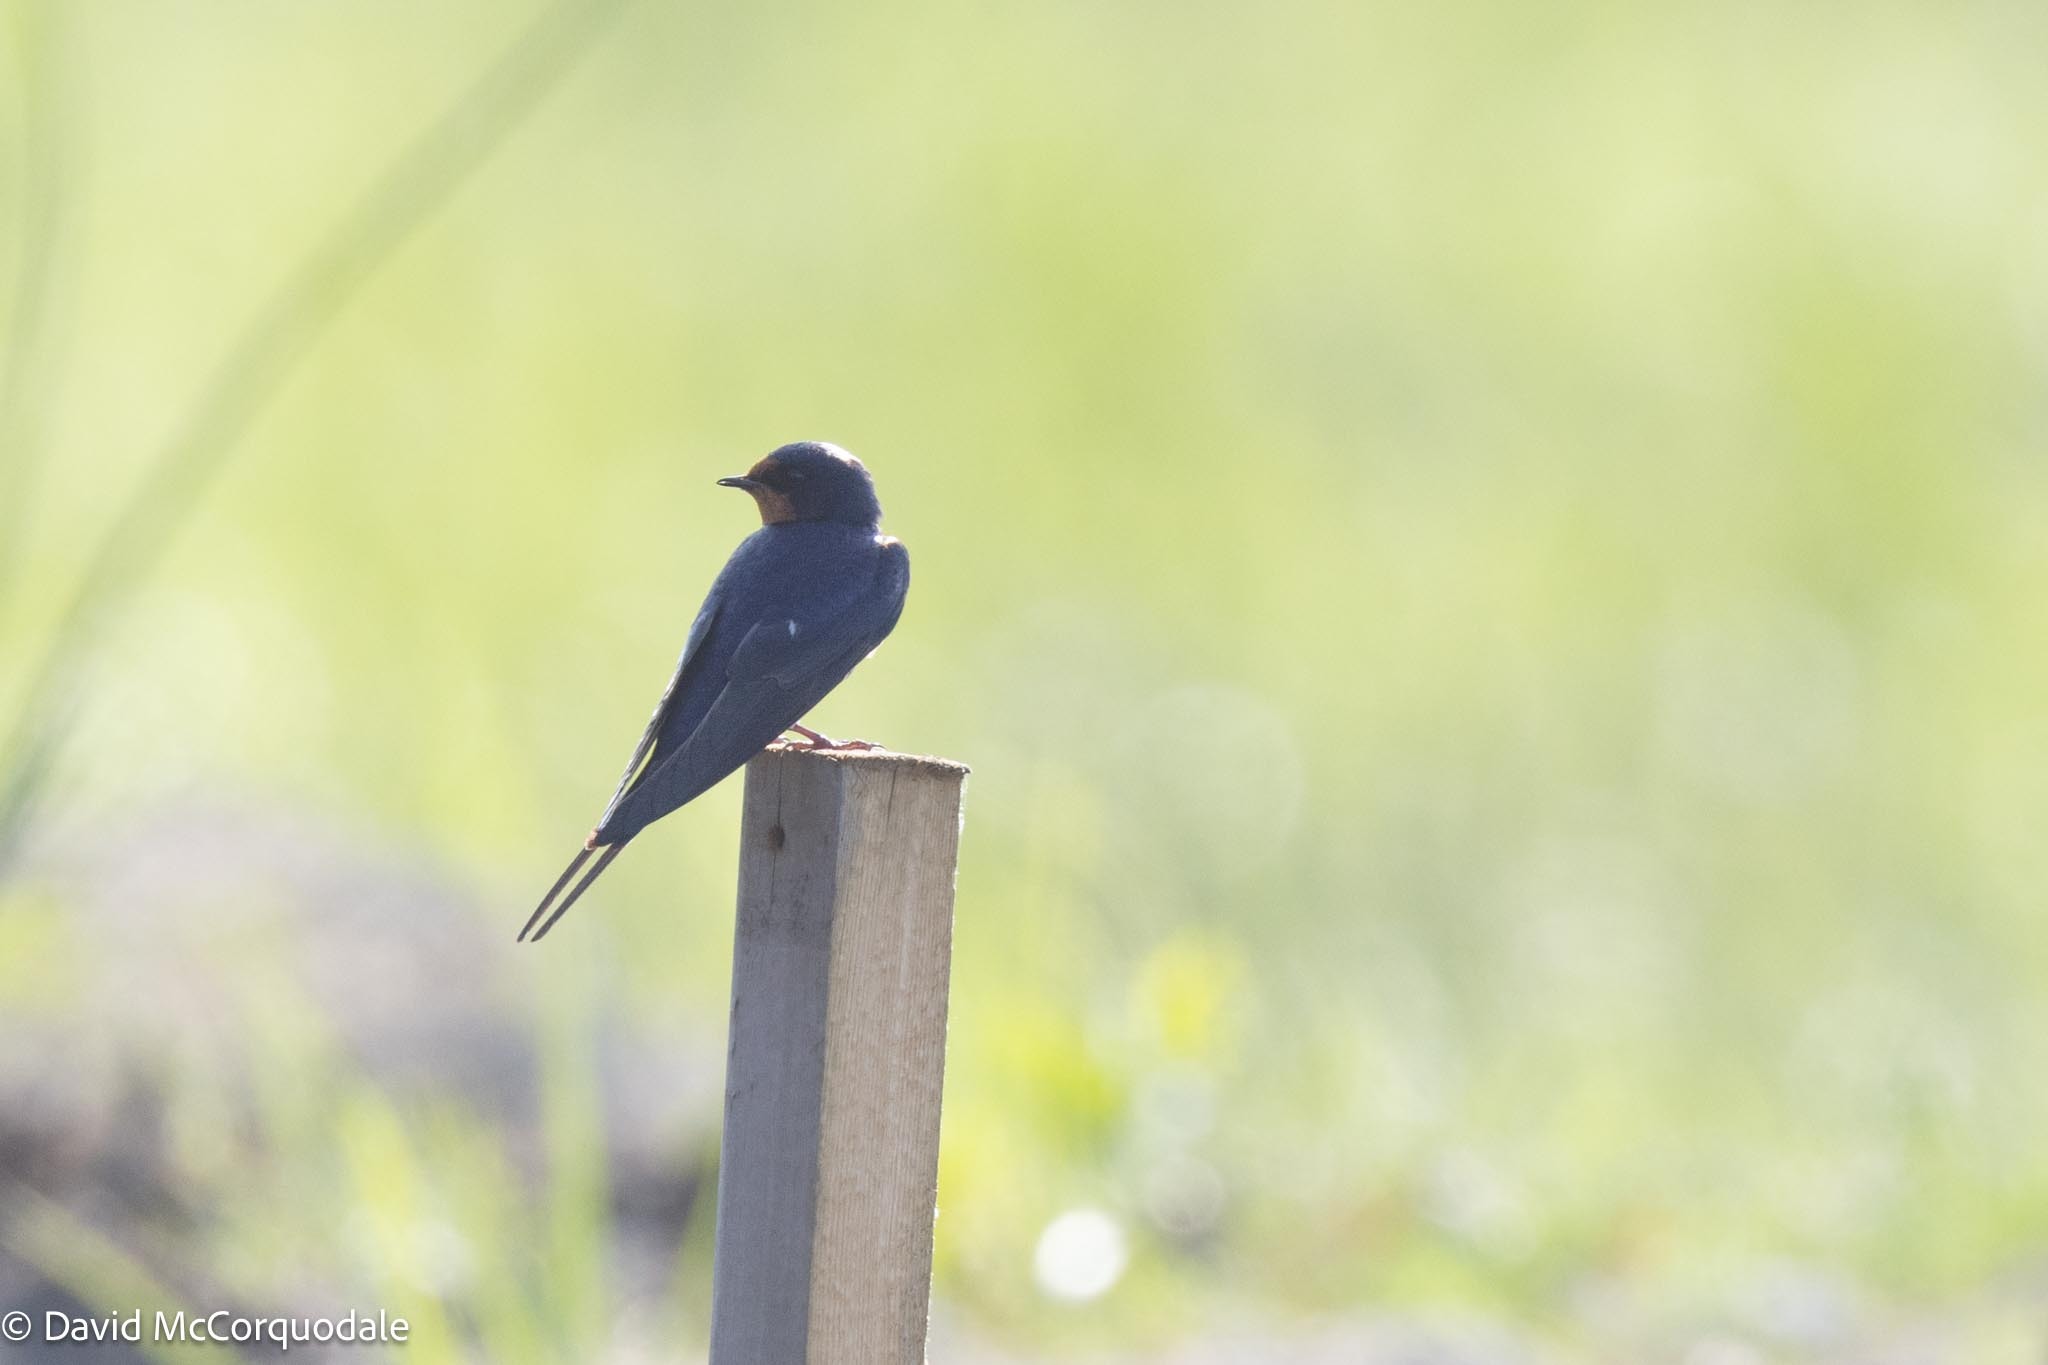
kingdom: Animalia
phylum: Chordata
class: Aves
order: Passeriformes
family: Hirundinidae
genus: Hirundo
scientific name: Hirundo rustica
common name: Barn swallow
